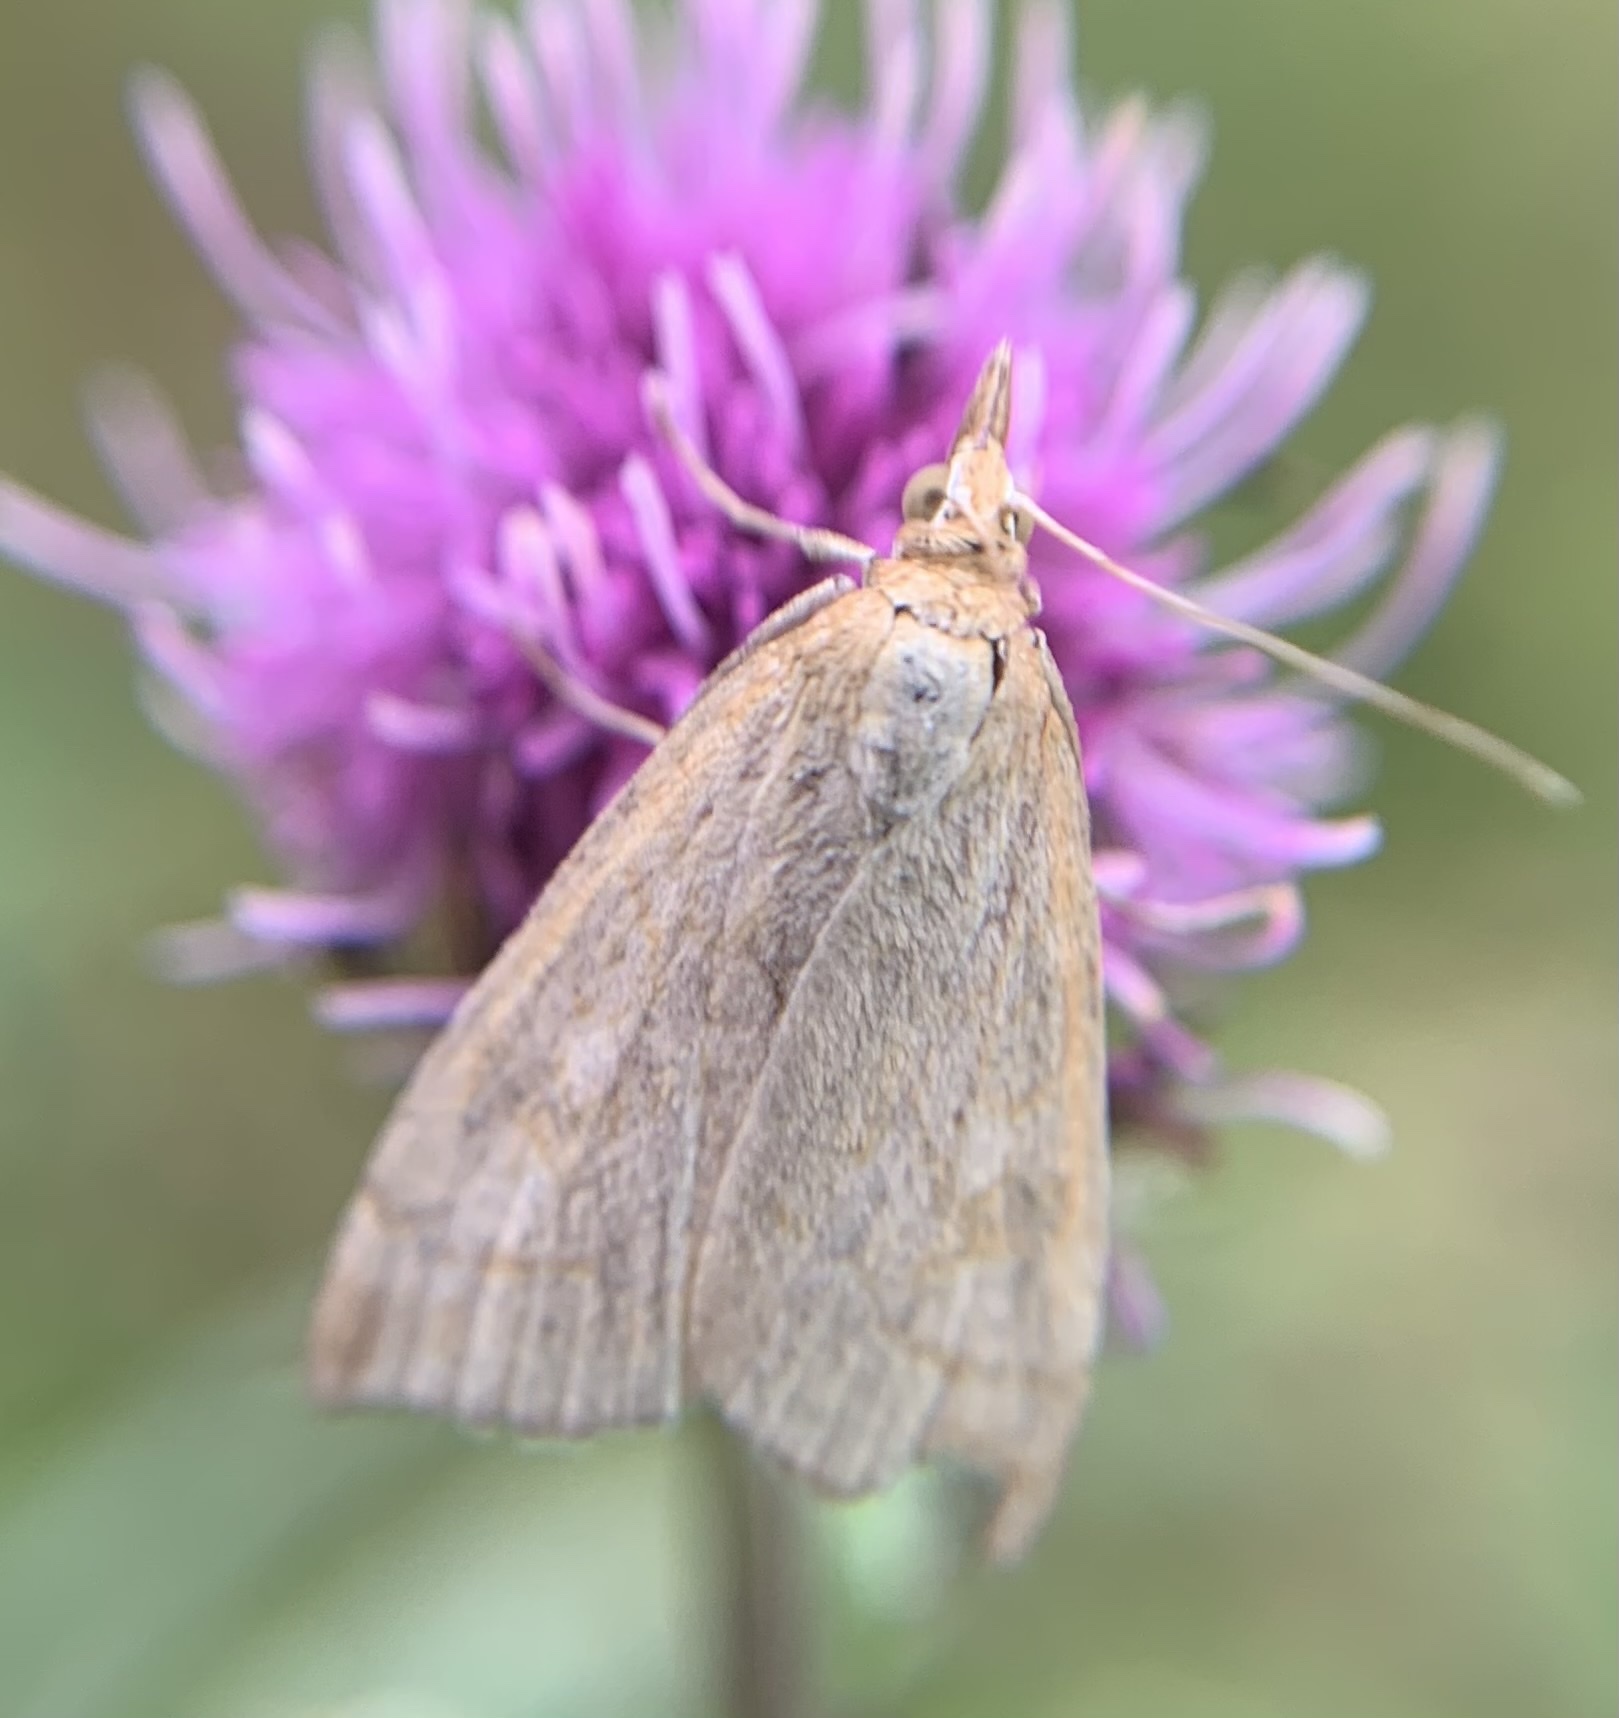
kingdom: Animalia
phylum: Arthropoda
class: Insecta
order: Lepidoptera
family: Crambidae
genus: Udea
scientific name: Udea lutealis
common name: Pale straw pearl
